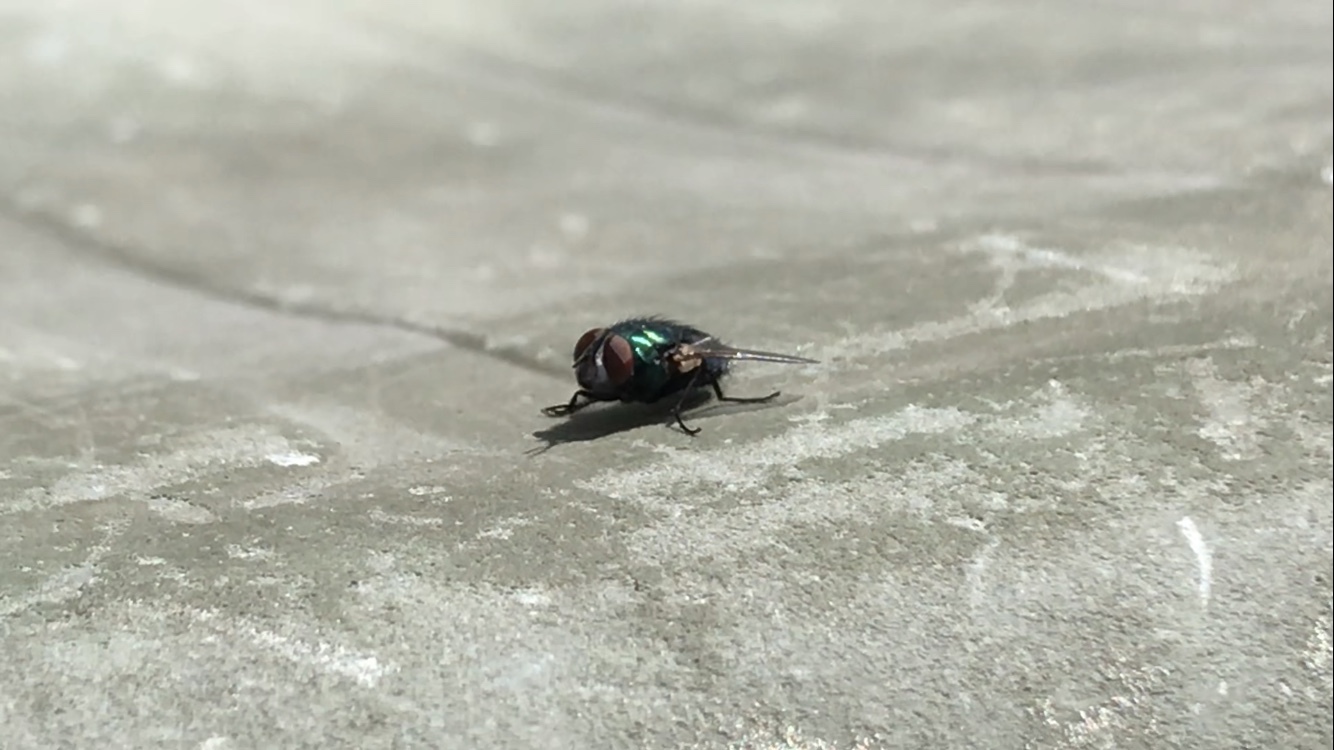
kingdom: Animalia
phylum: Arthropoda
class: Insecta
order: Diptera
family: Calliphoridae
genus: Lucilia
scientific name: Lucilia
